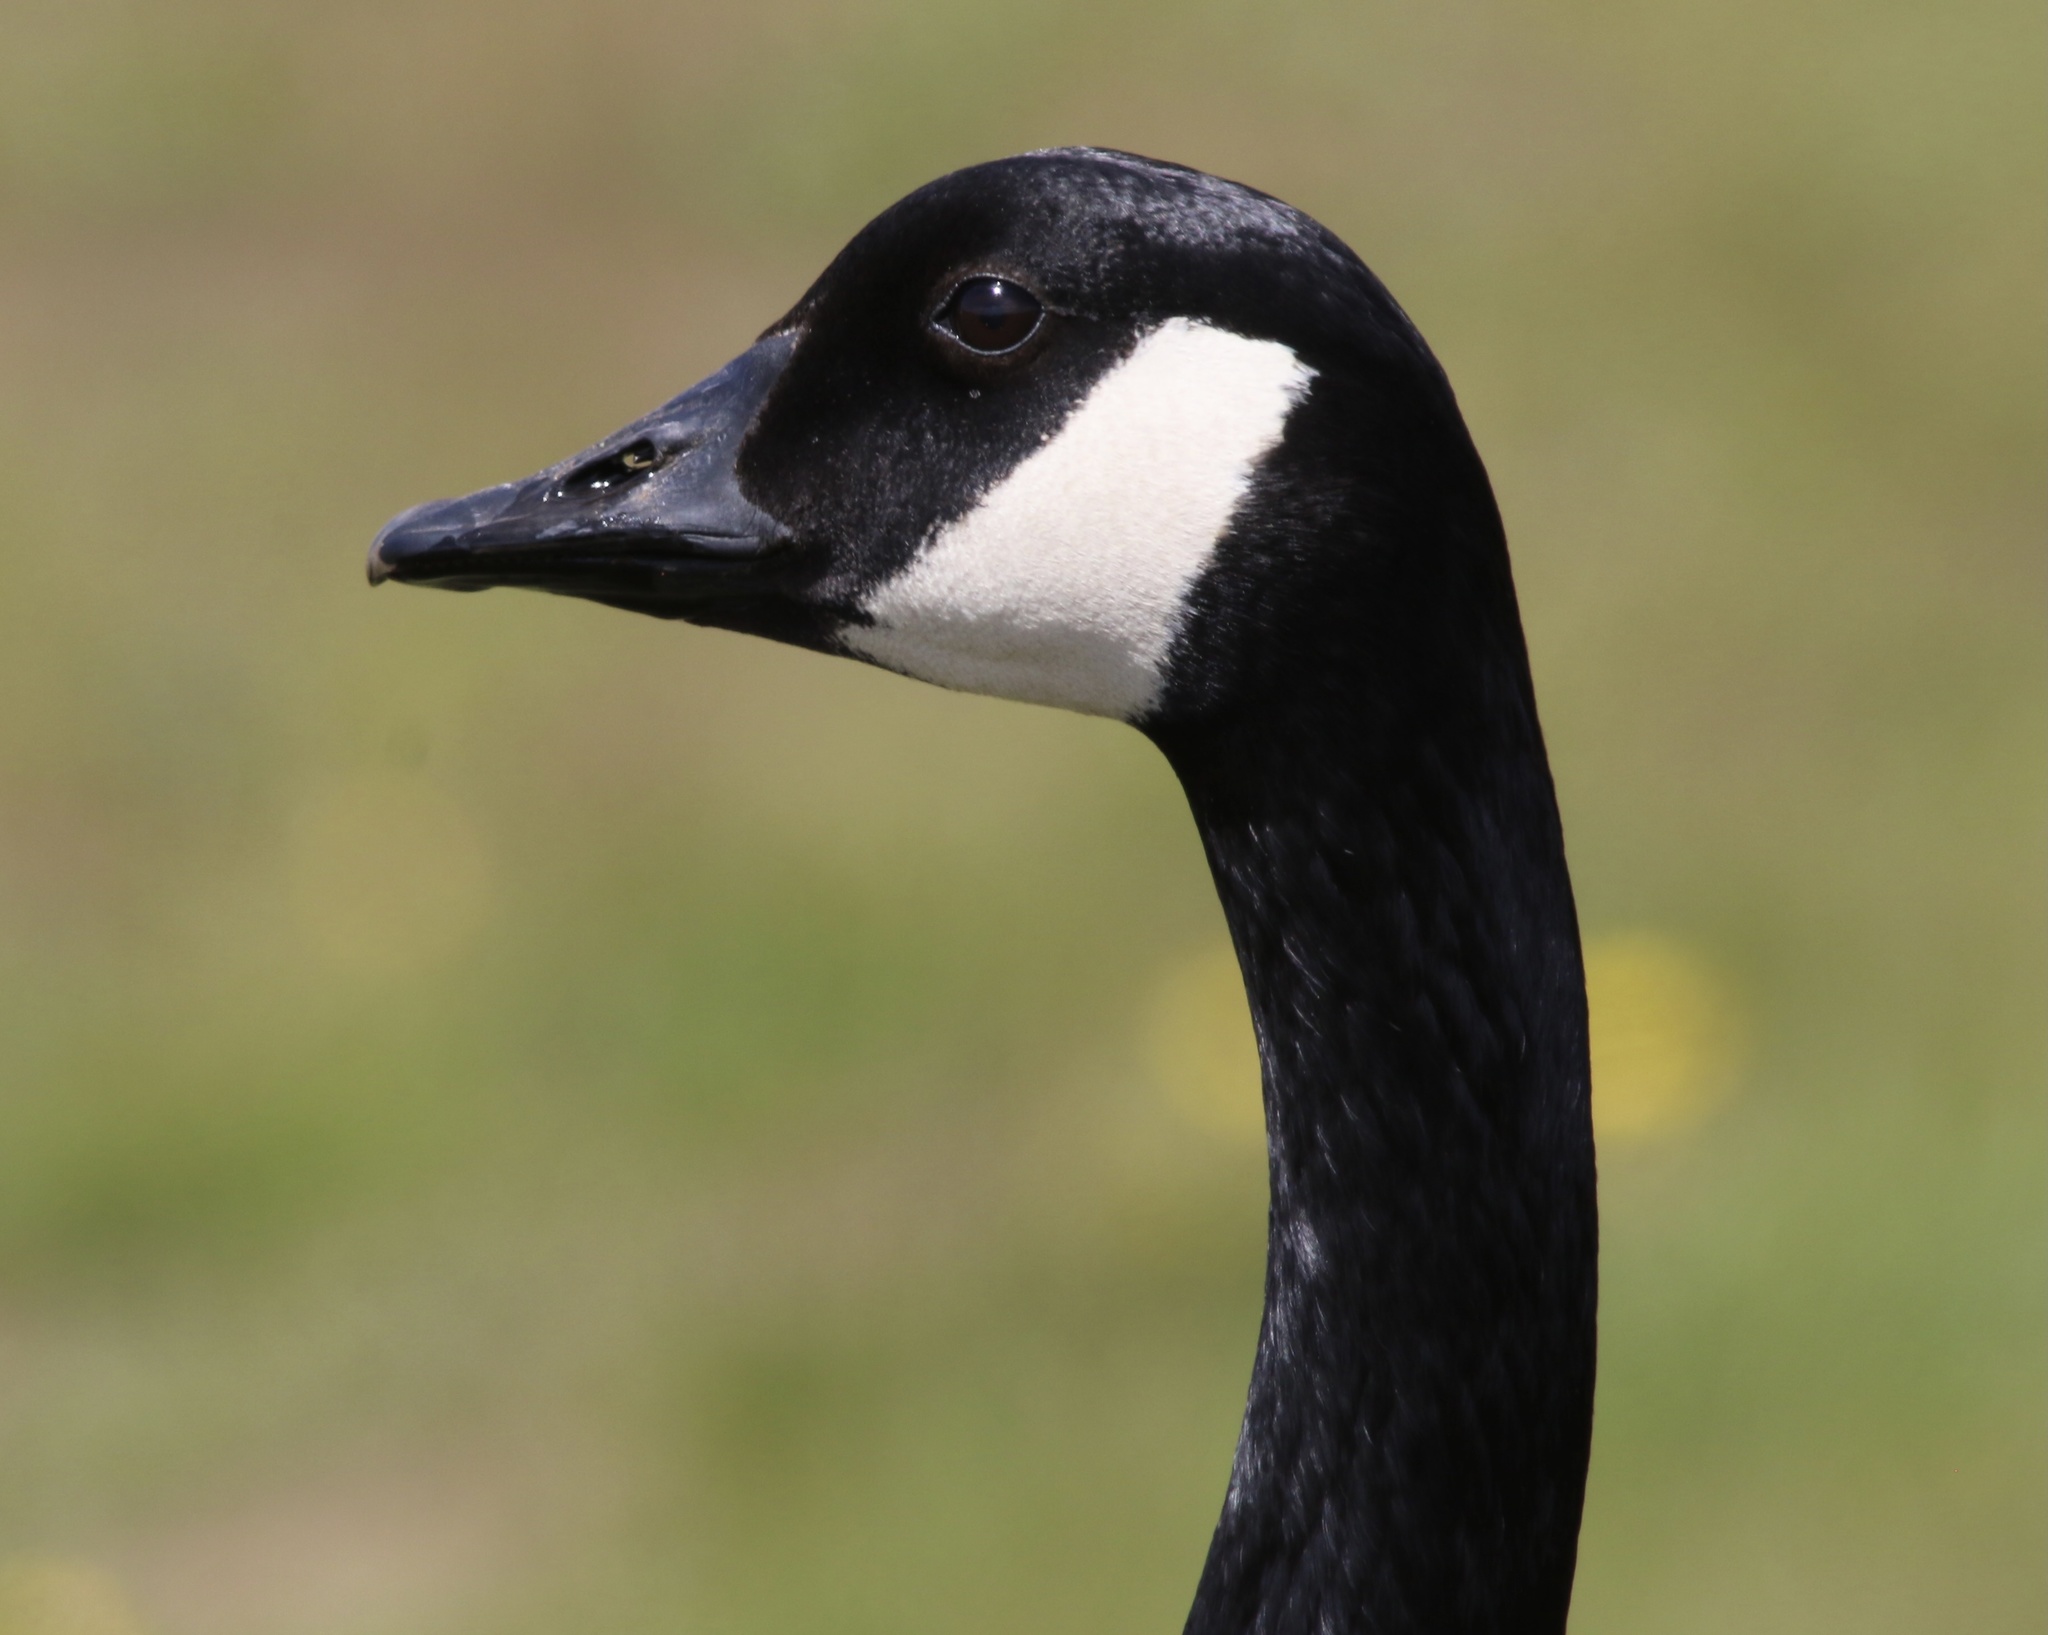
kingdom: Animalia
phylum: Chordata
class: Aves
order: Anseriformes
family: Anatidae
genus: Branta
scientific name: Branta canadensis
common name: Canada goose
